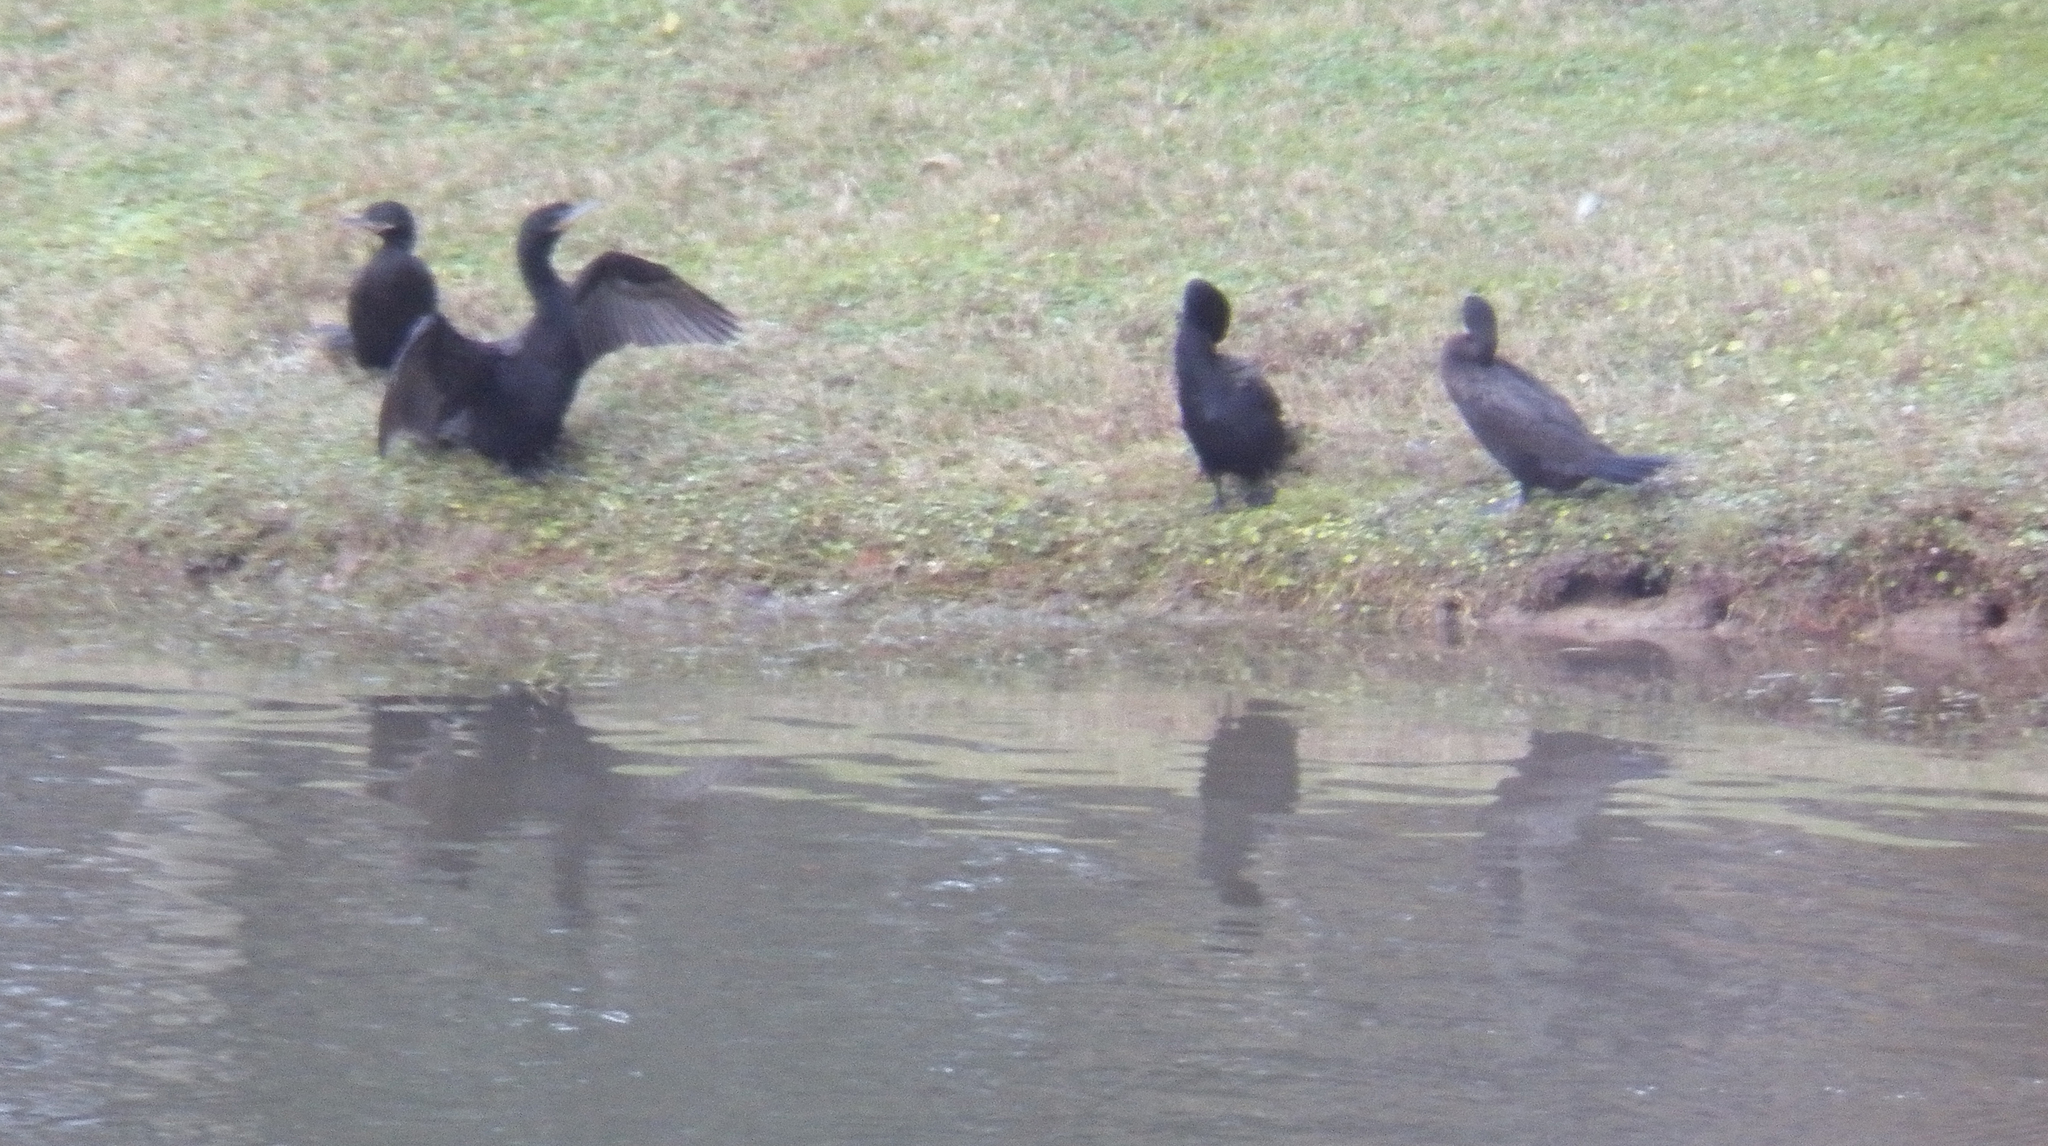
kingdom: Animalia
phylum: Chordata
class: Aves
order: Suliformes
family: Phalacrocoracidae
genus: Phalacrocorax
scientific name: Phalacrocorax brasilianus
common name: Neotropic cormorant
